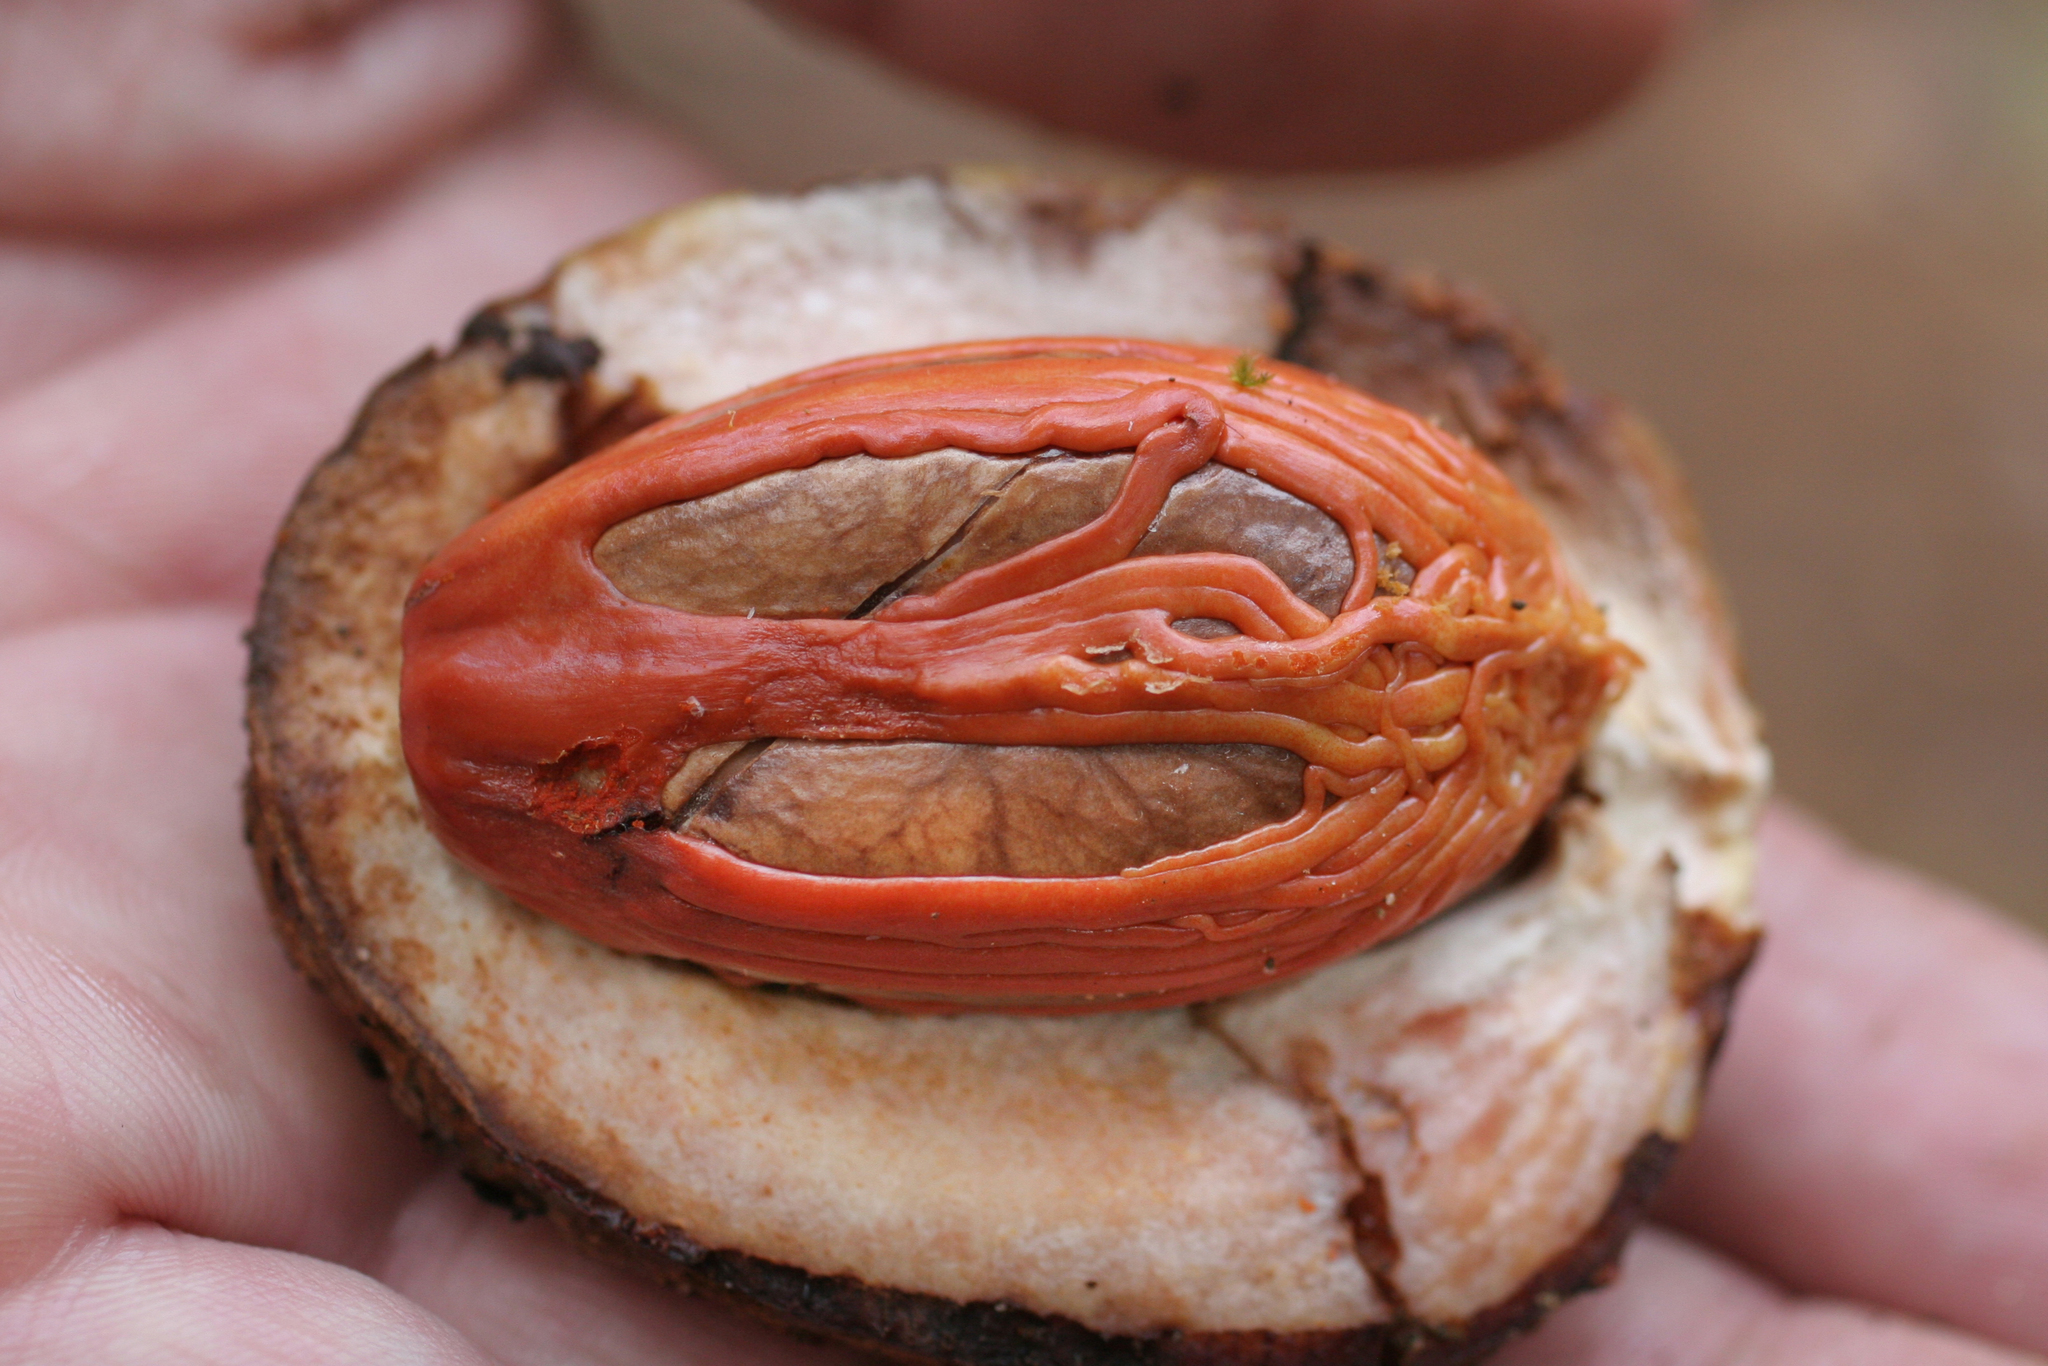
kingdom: Plantae
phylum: Tracheophyta
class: Magnoliopsida
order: Magnoliales
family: Myristicaceae
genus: Myristica
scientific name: Myristica fragrans
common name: Nutmeg
